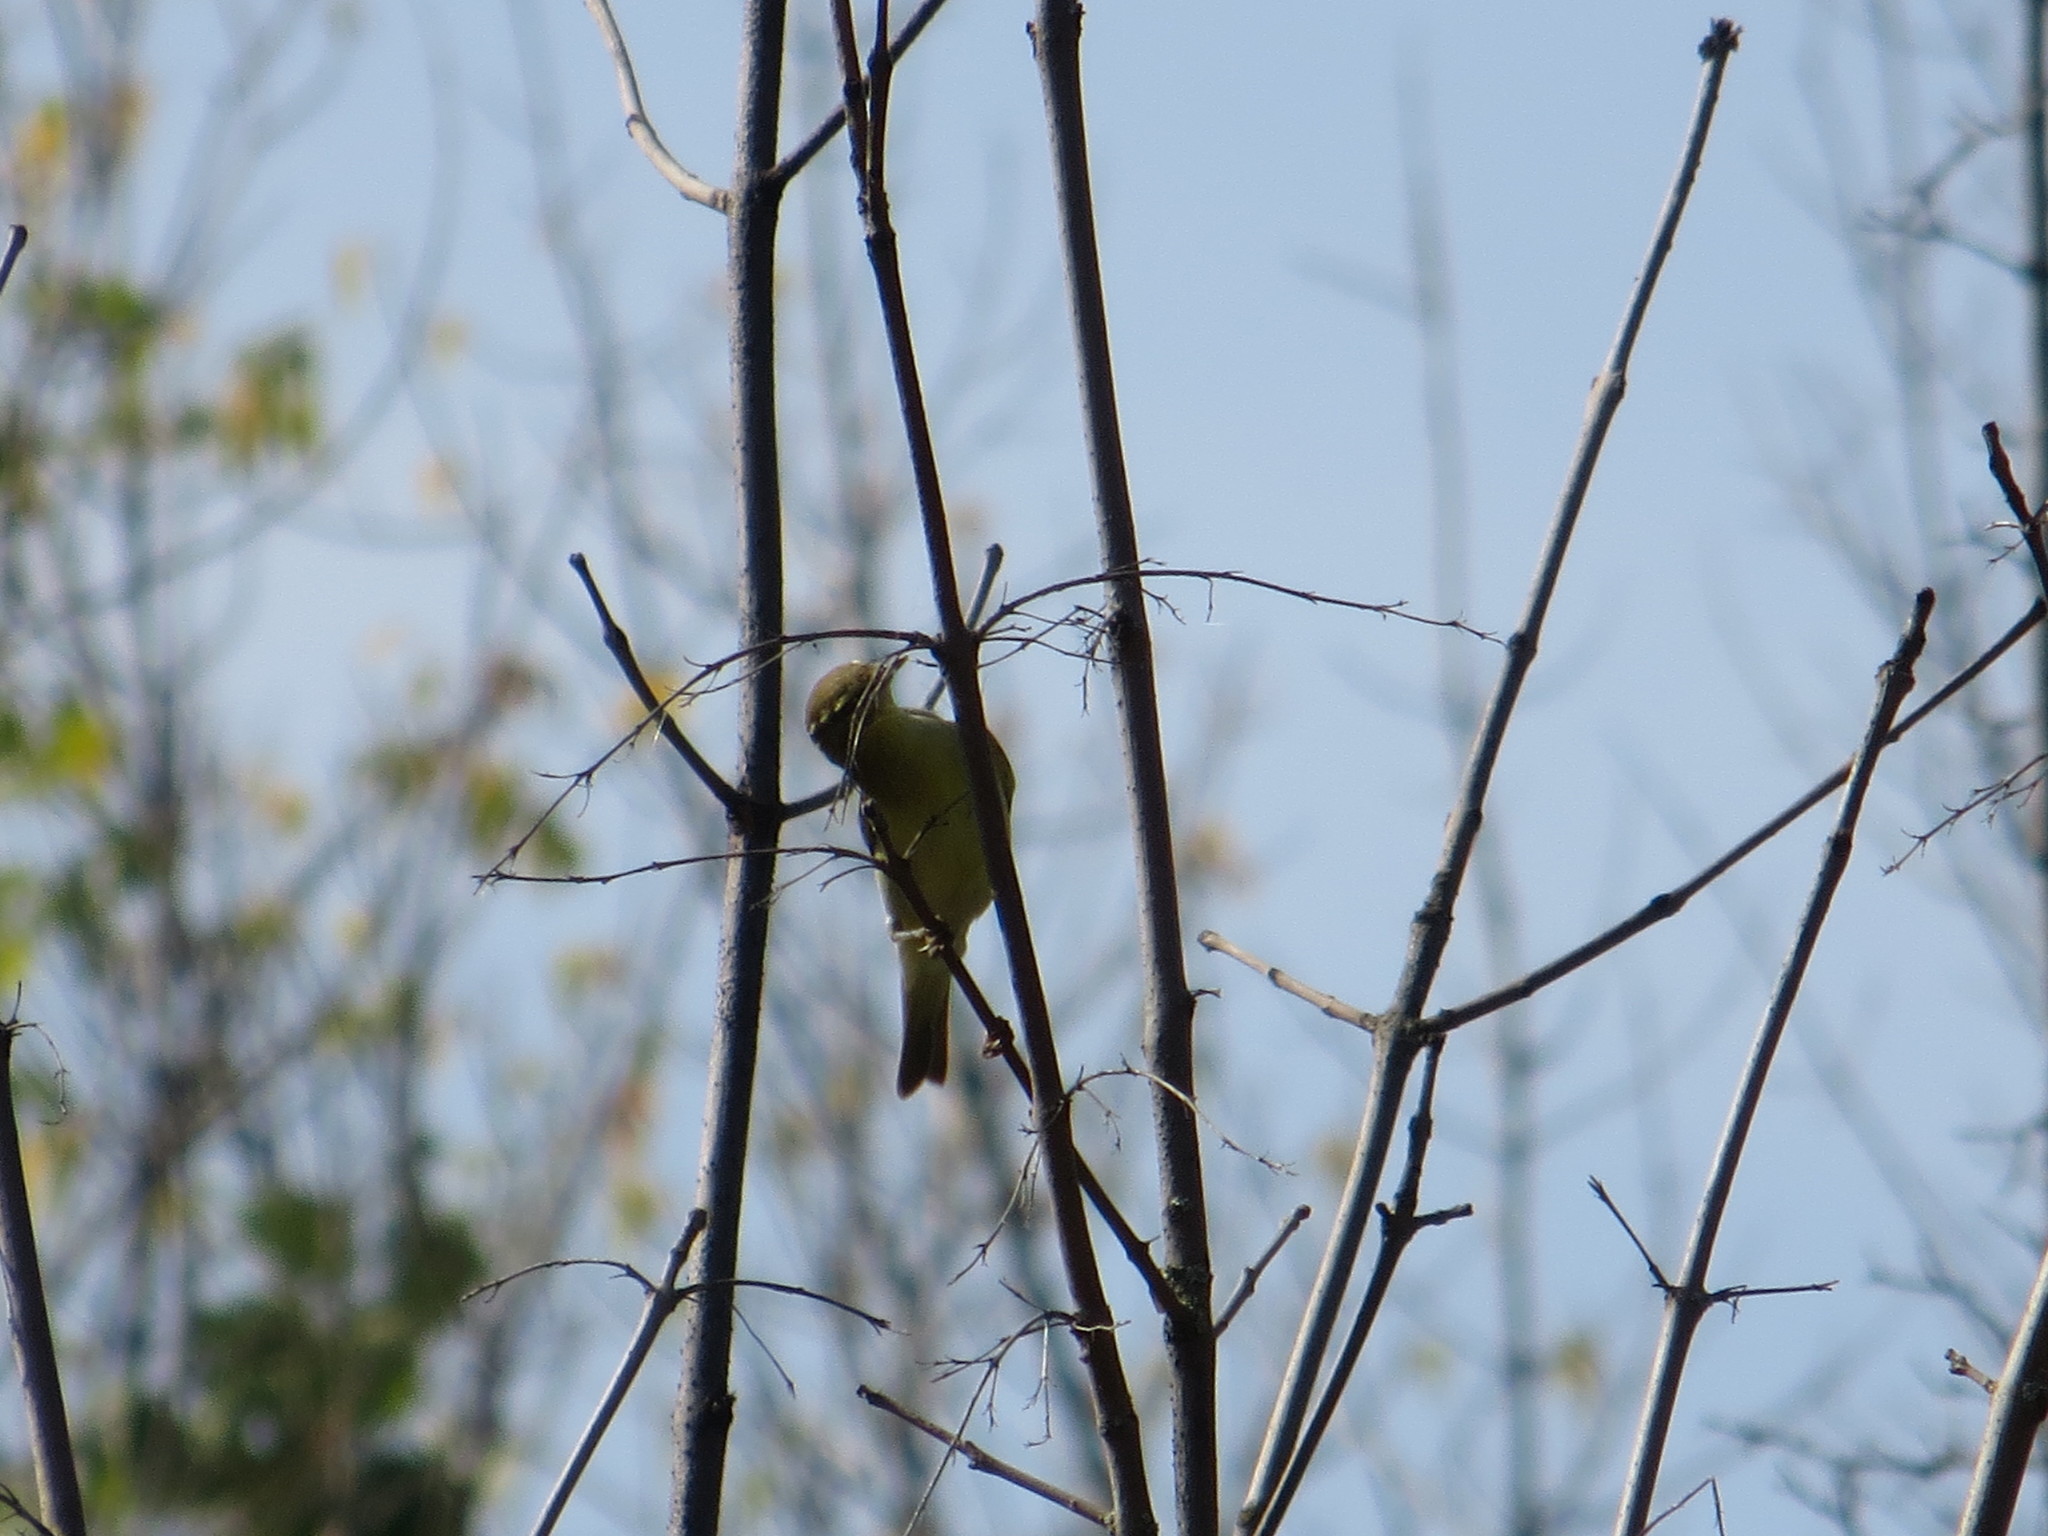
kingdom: Animalia
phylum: Chordata
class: Aves
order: Passeriformes
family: Phylloscopidae
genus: Phylloscopus
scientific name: Phylloscopus trochilus
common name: Willow warbler
